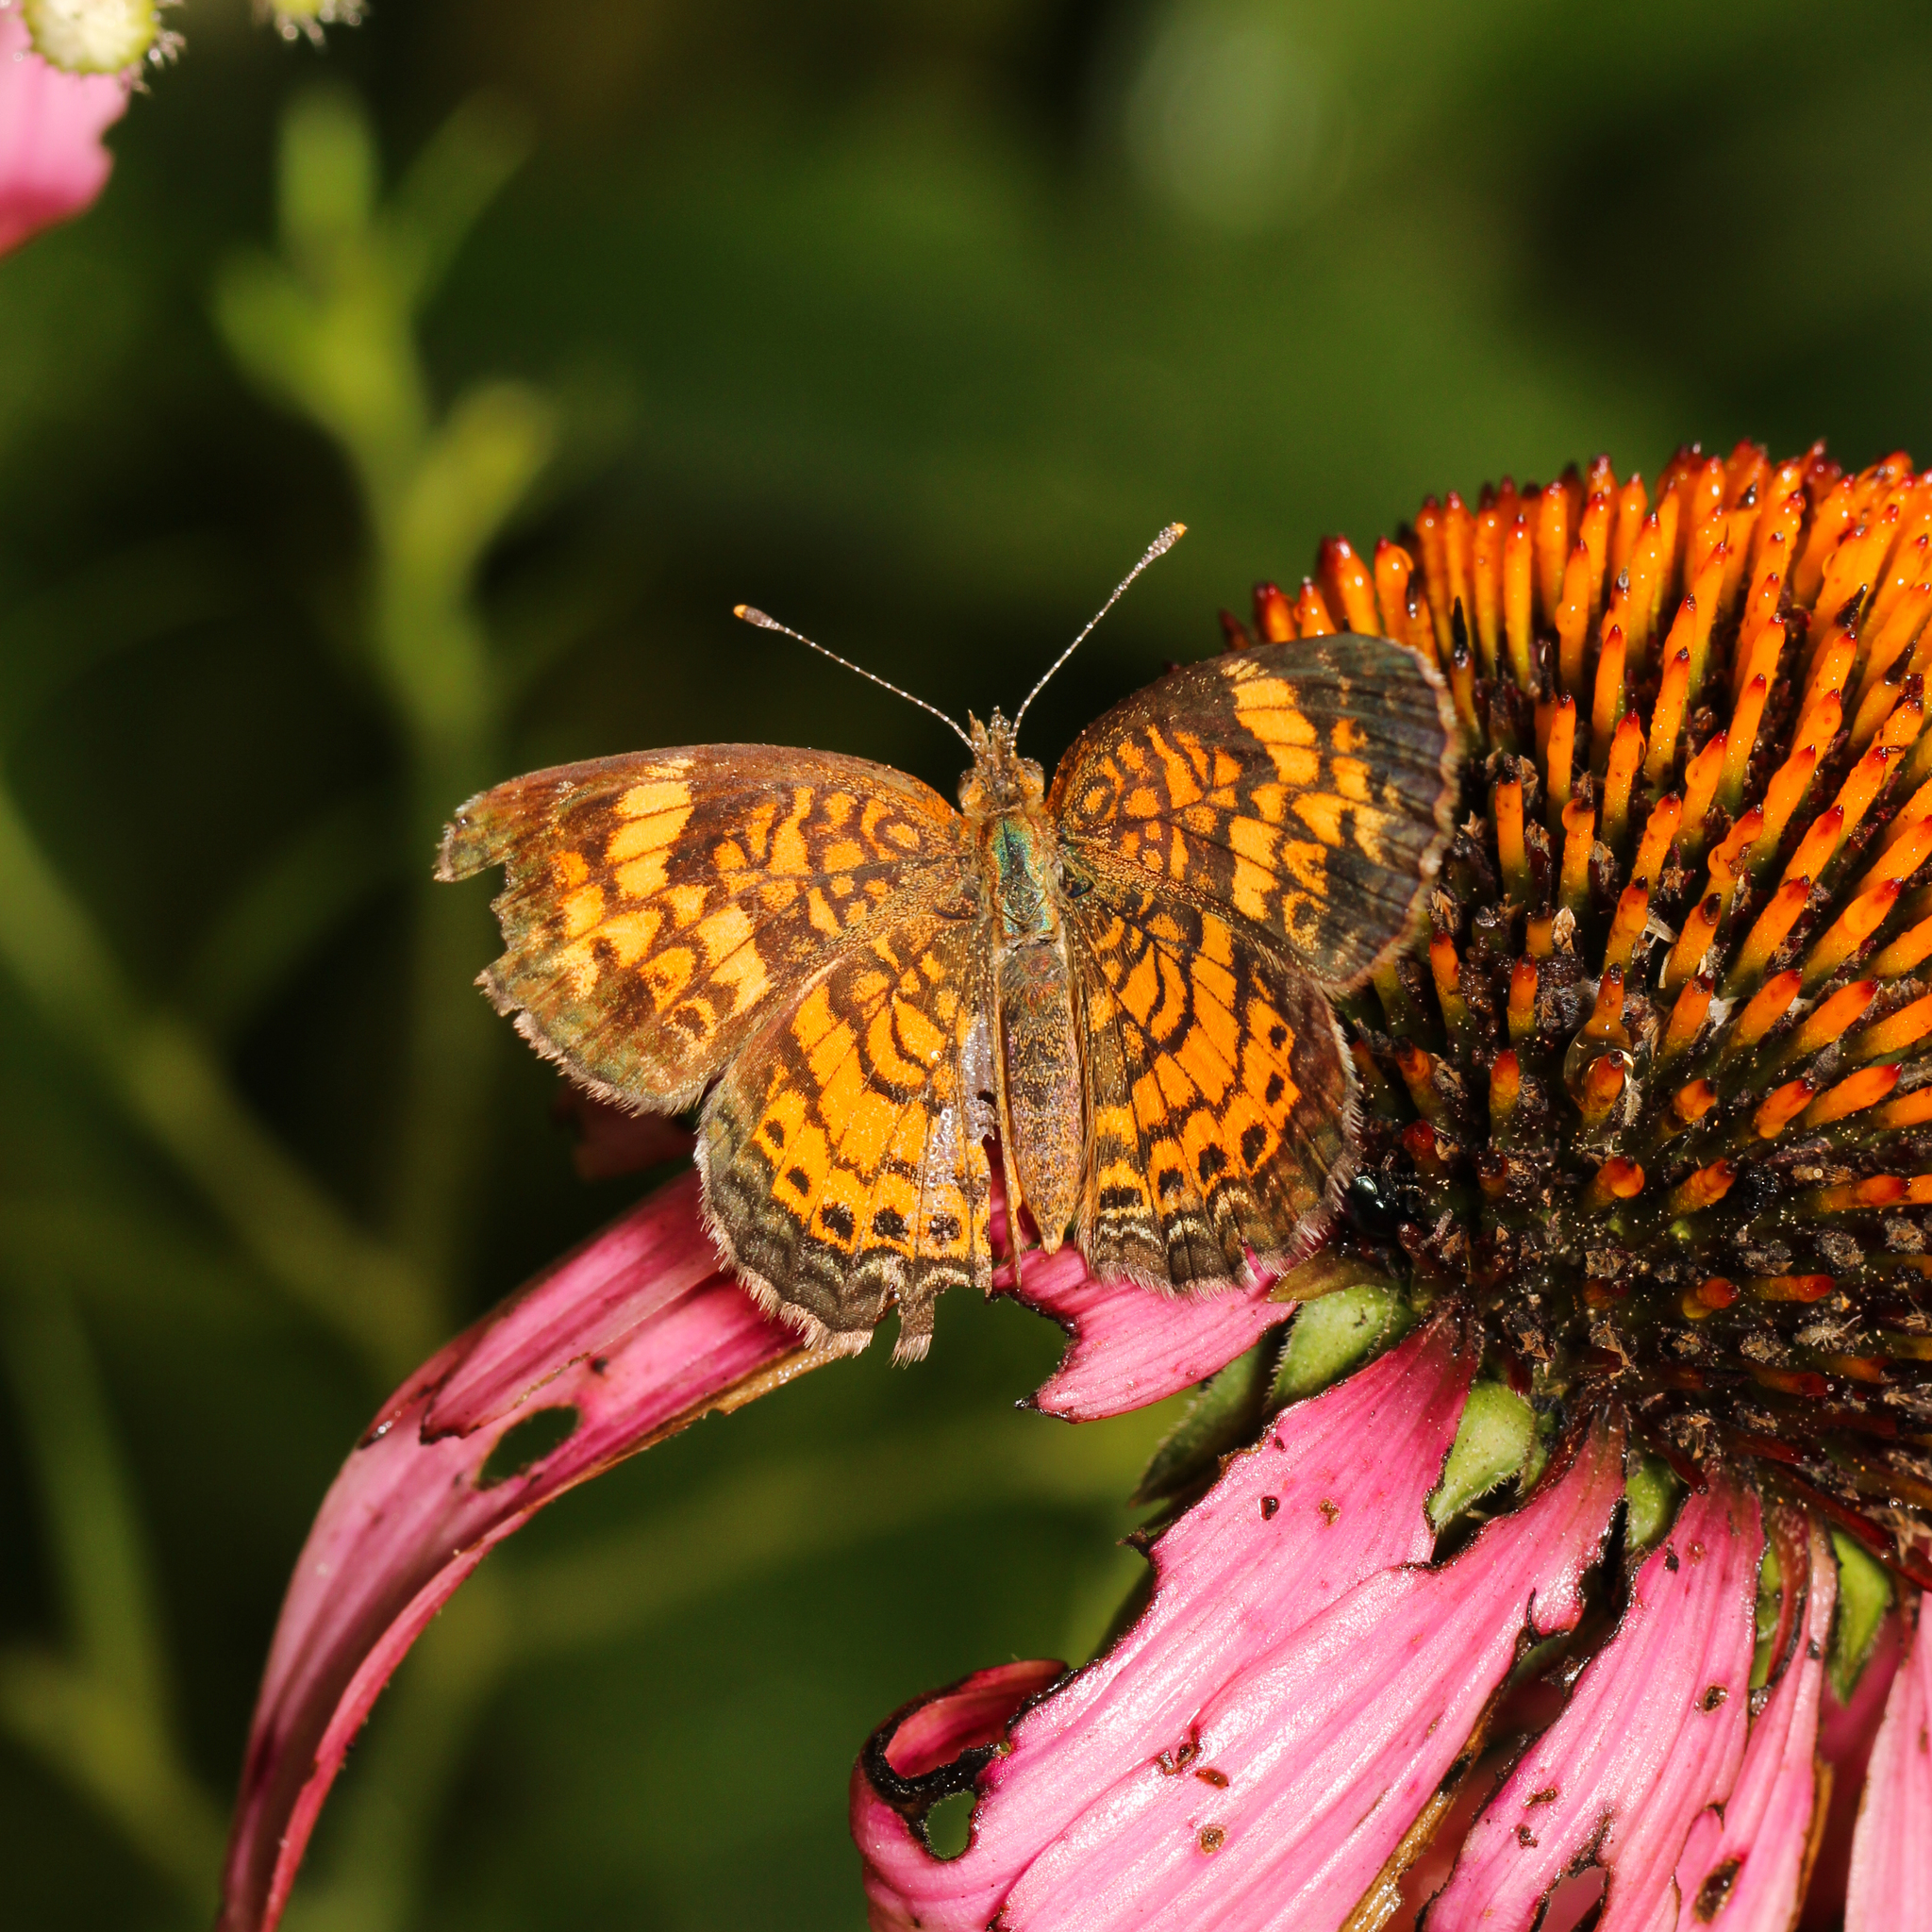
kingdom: Animalia
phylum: Arthropoda
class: Insecta
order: Lepidoptera
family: Nymphalidae
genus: Phyciodes
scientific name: Phyciodes tharos
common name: Pearl crescent
